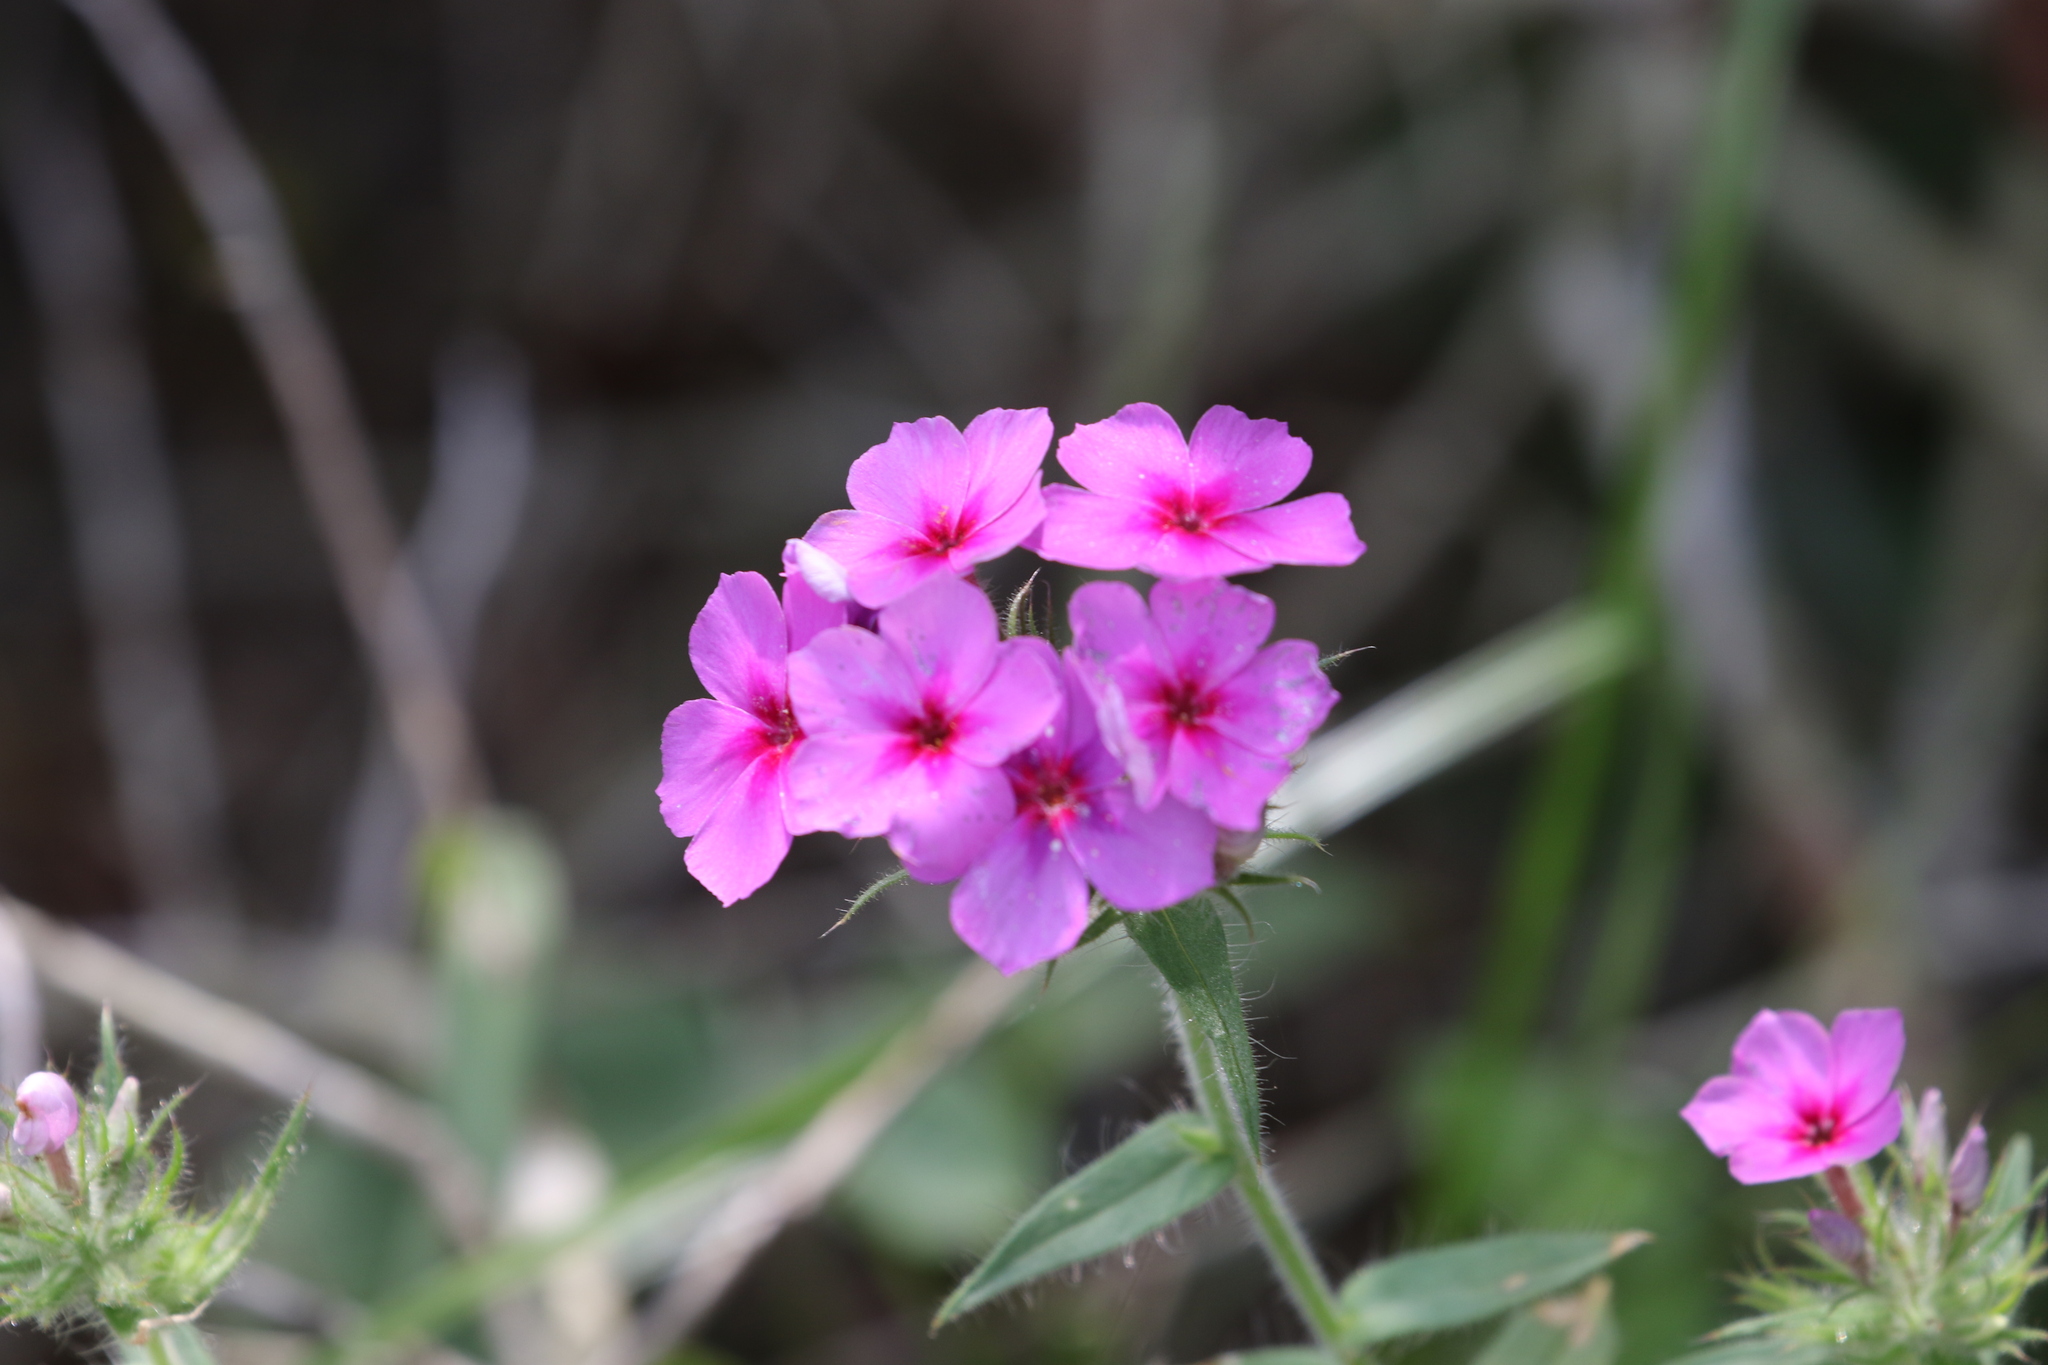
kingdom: Plantae
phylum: Tracheophyta
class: Magnoliopsida
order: Ericales
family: Polemoniaceae
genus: Phlox
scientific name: Phlox drummondii
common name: Drummond's phlox
